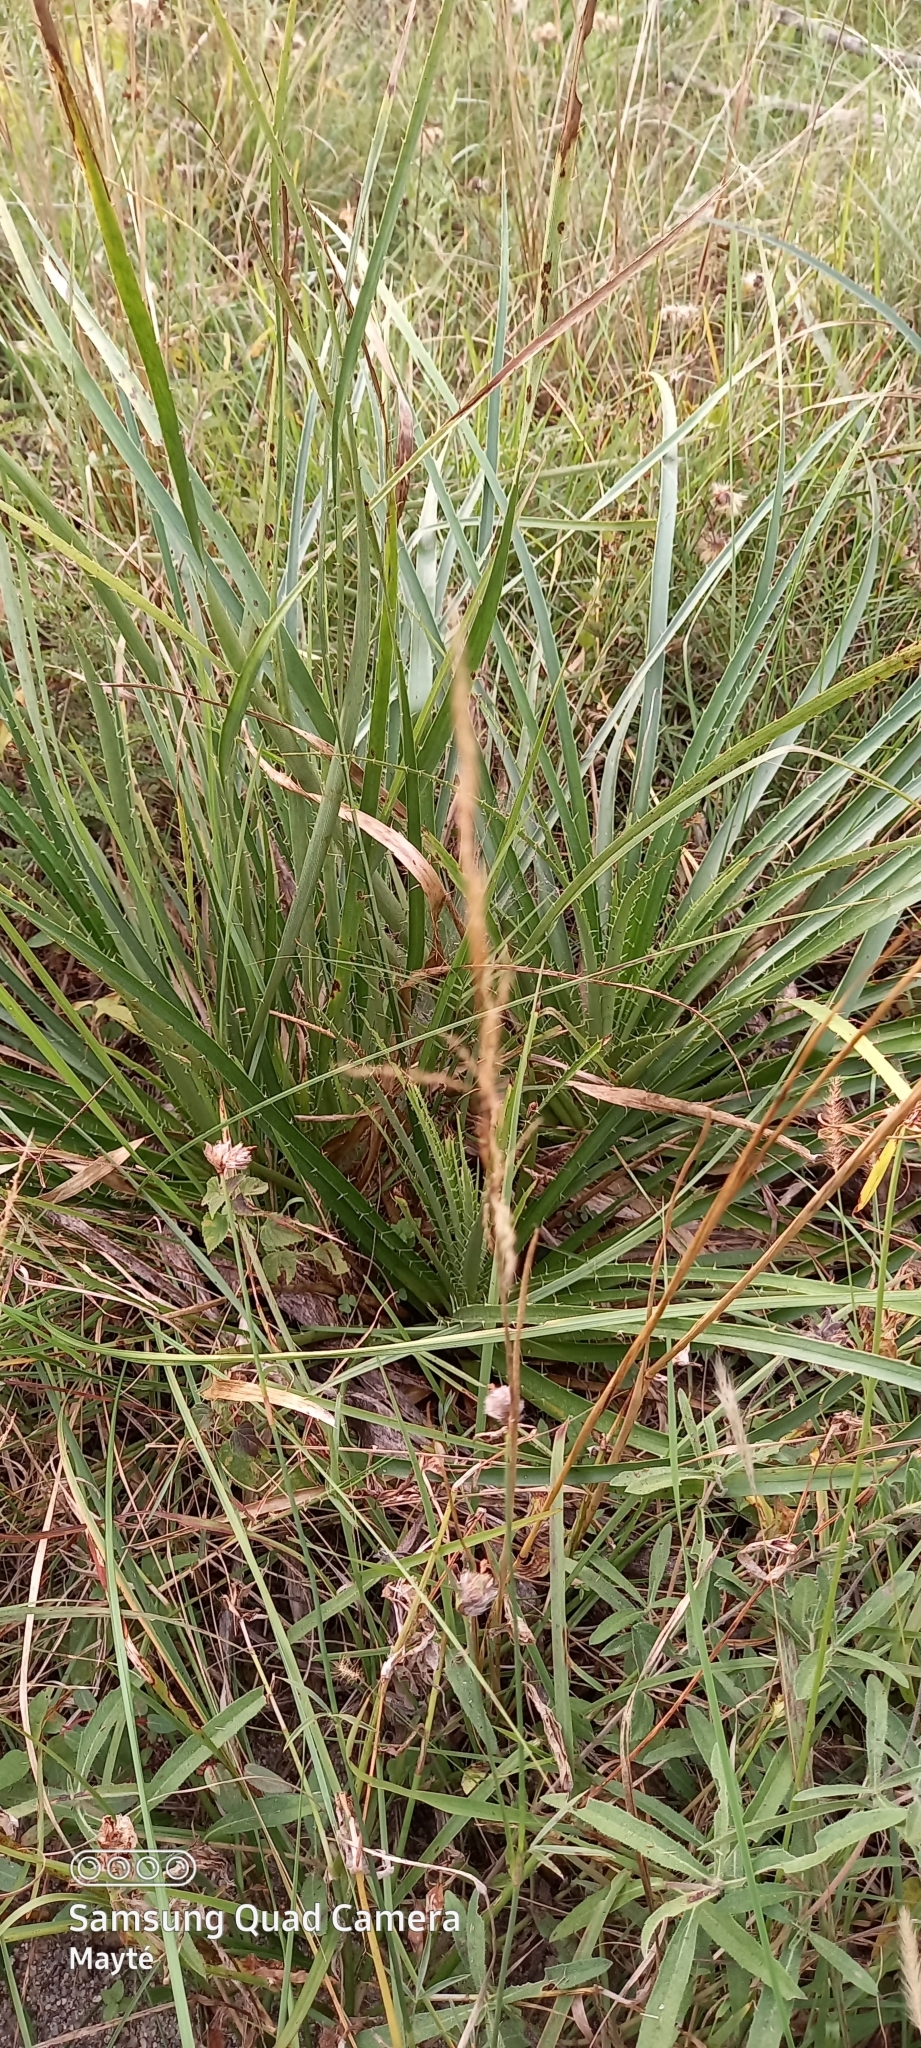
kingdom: Plantae
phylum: Tracheophyta
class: Magnoliopsida
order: Apiales
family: Apiaceae
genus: Eryngium
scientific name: Eryngium horridum
